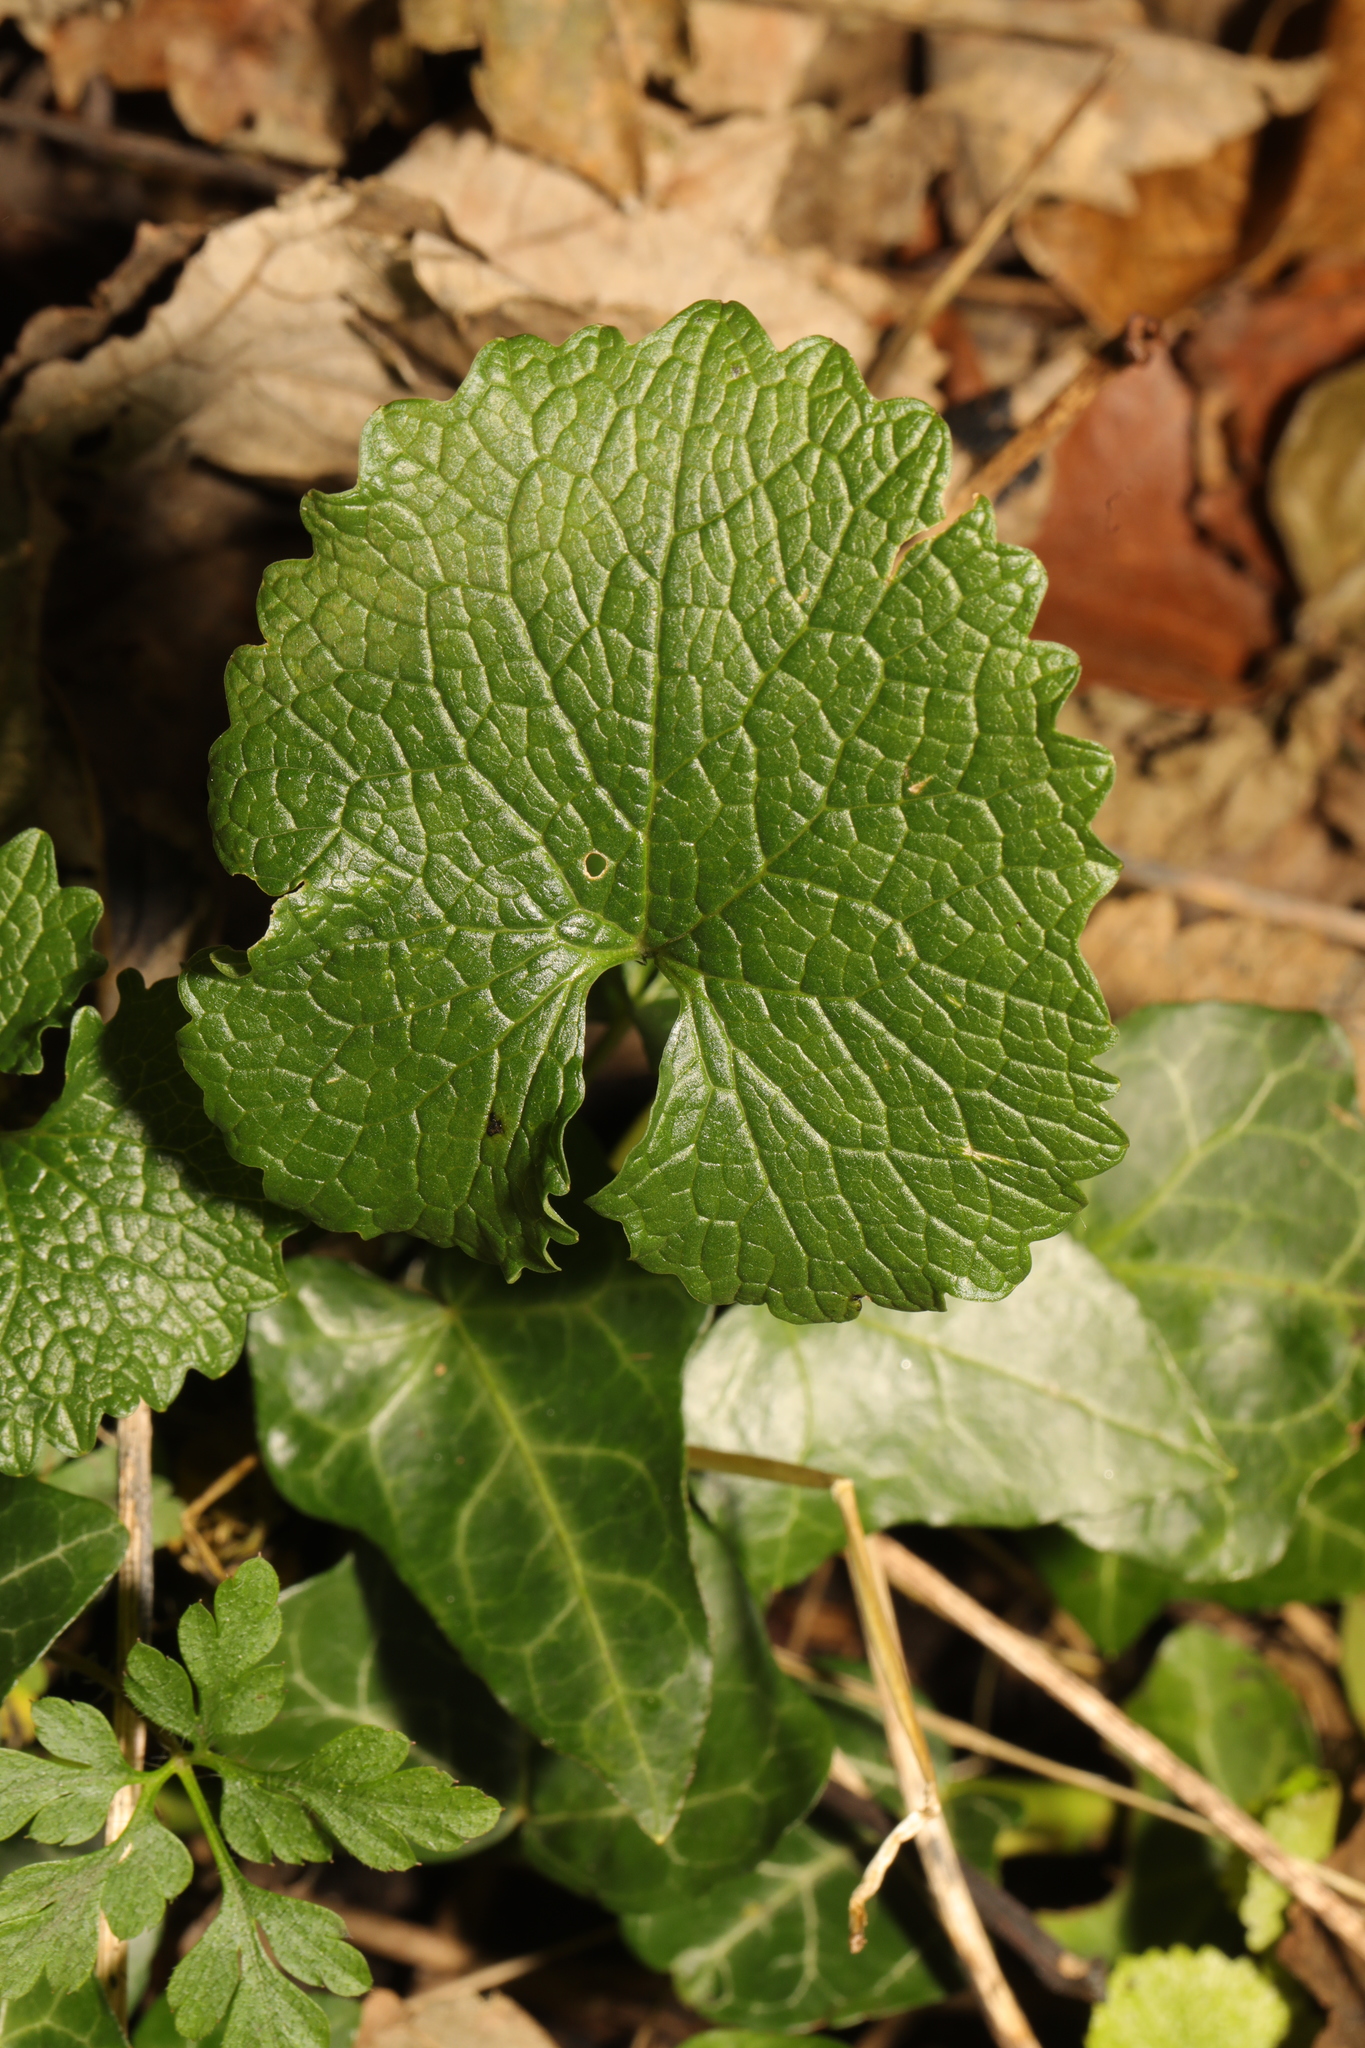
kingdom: Plantae
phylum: Tracheophyta
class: Magnoliopsida
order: Brassicales
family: Brassicaceae
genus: Alliaria
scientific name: Alliaria petiolata
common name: Garlic mustard
